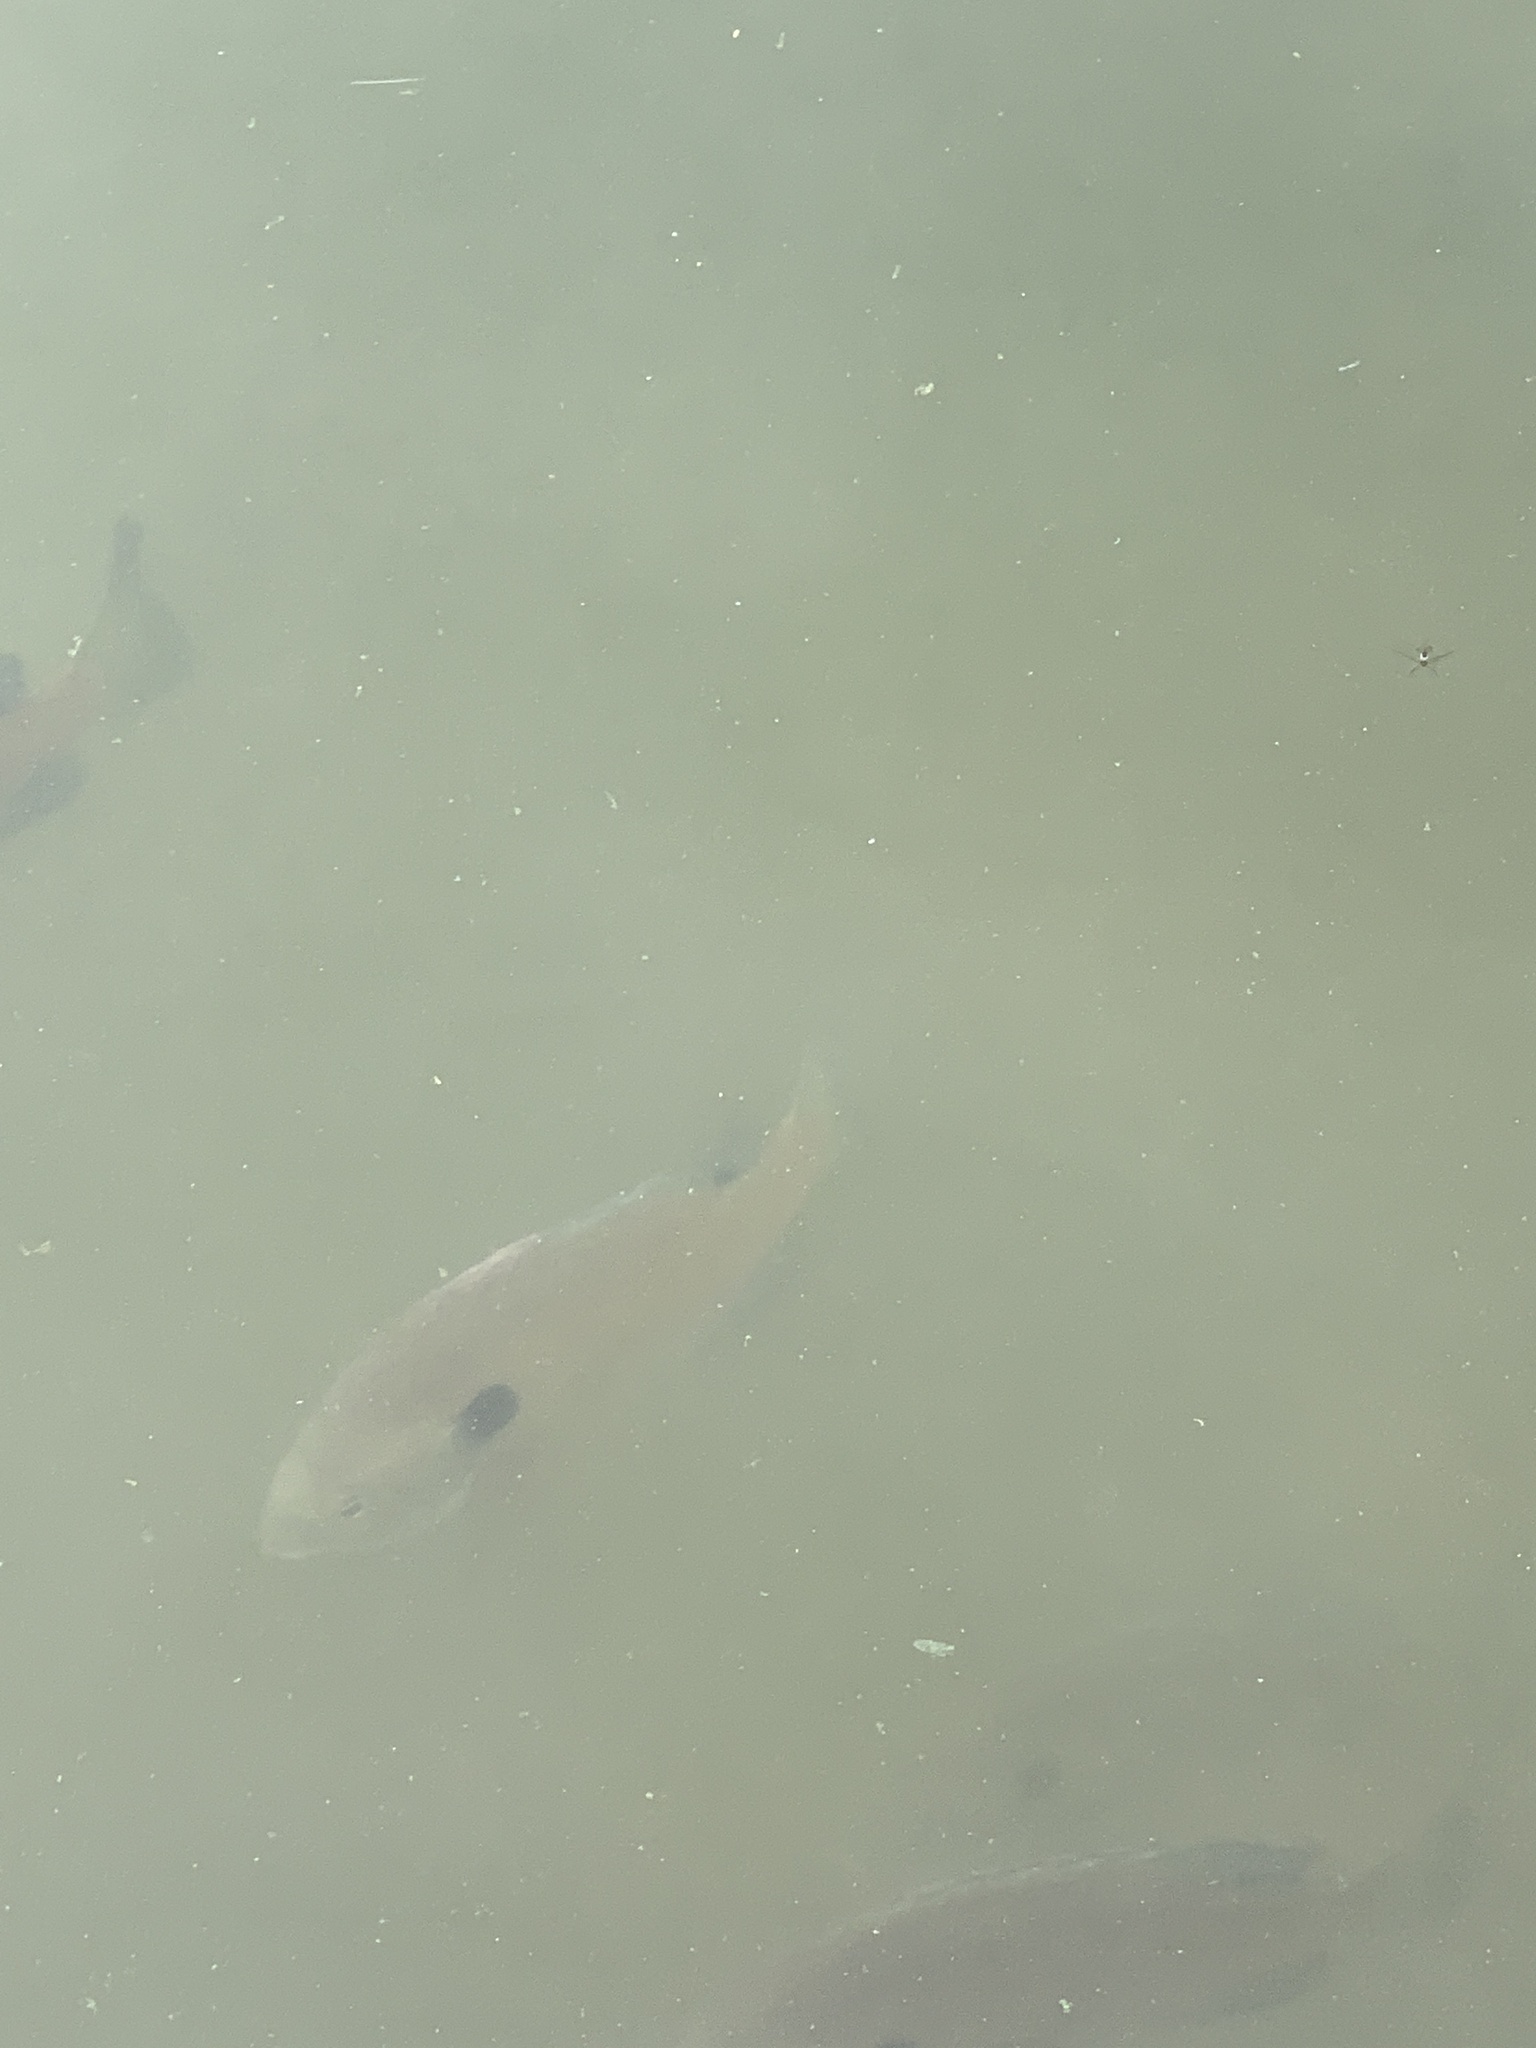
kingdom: Animalia
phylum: Chordata
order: Perciformes
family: Centrarchidae
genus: Lepomis
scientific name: Lepomis macrochirus
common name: Bluegill
